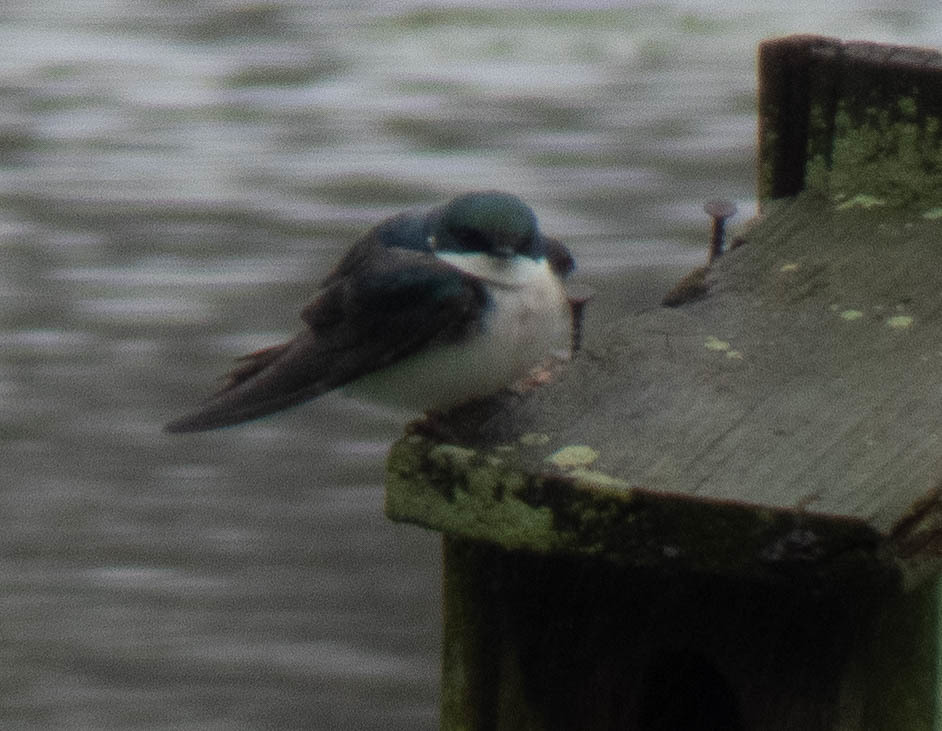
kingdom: Animalia
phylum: Chordata
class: Aves
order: Passeriformes
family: Hirundinidae
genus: Tachycineta
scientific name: Tachycineta bicolor
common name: Tree swallow
